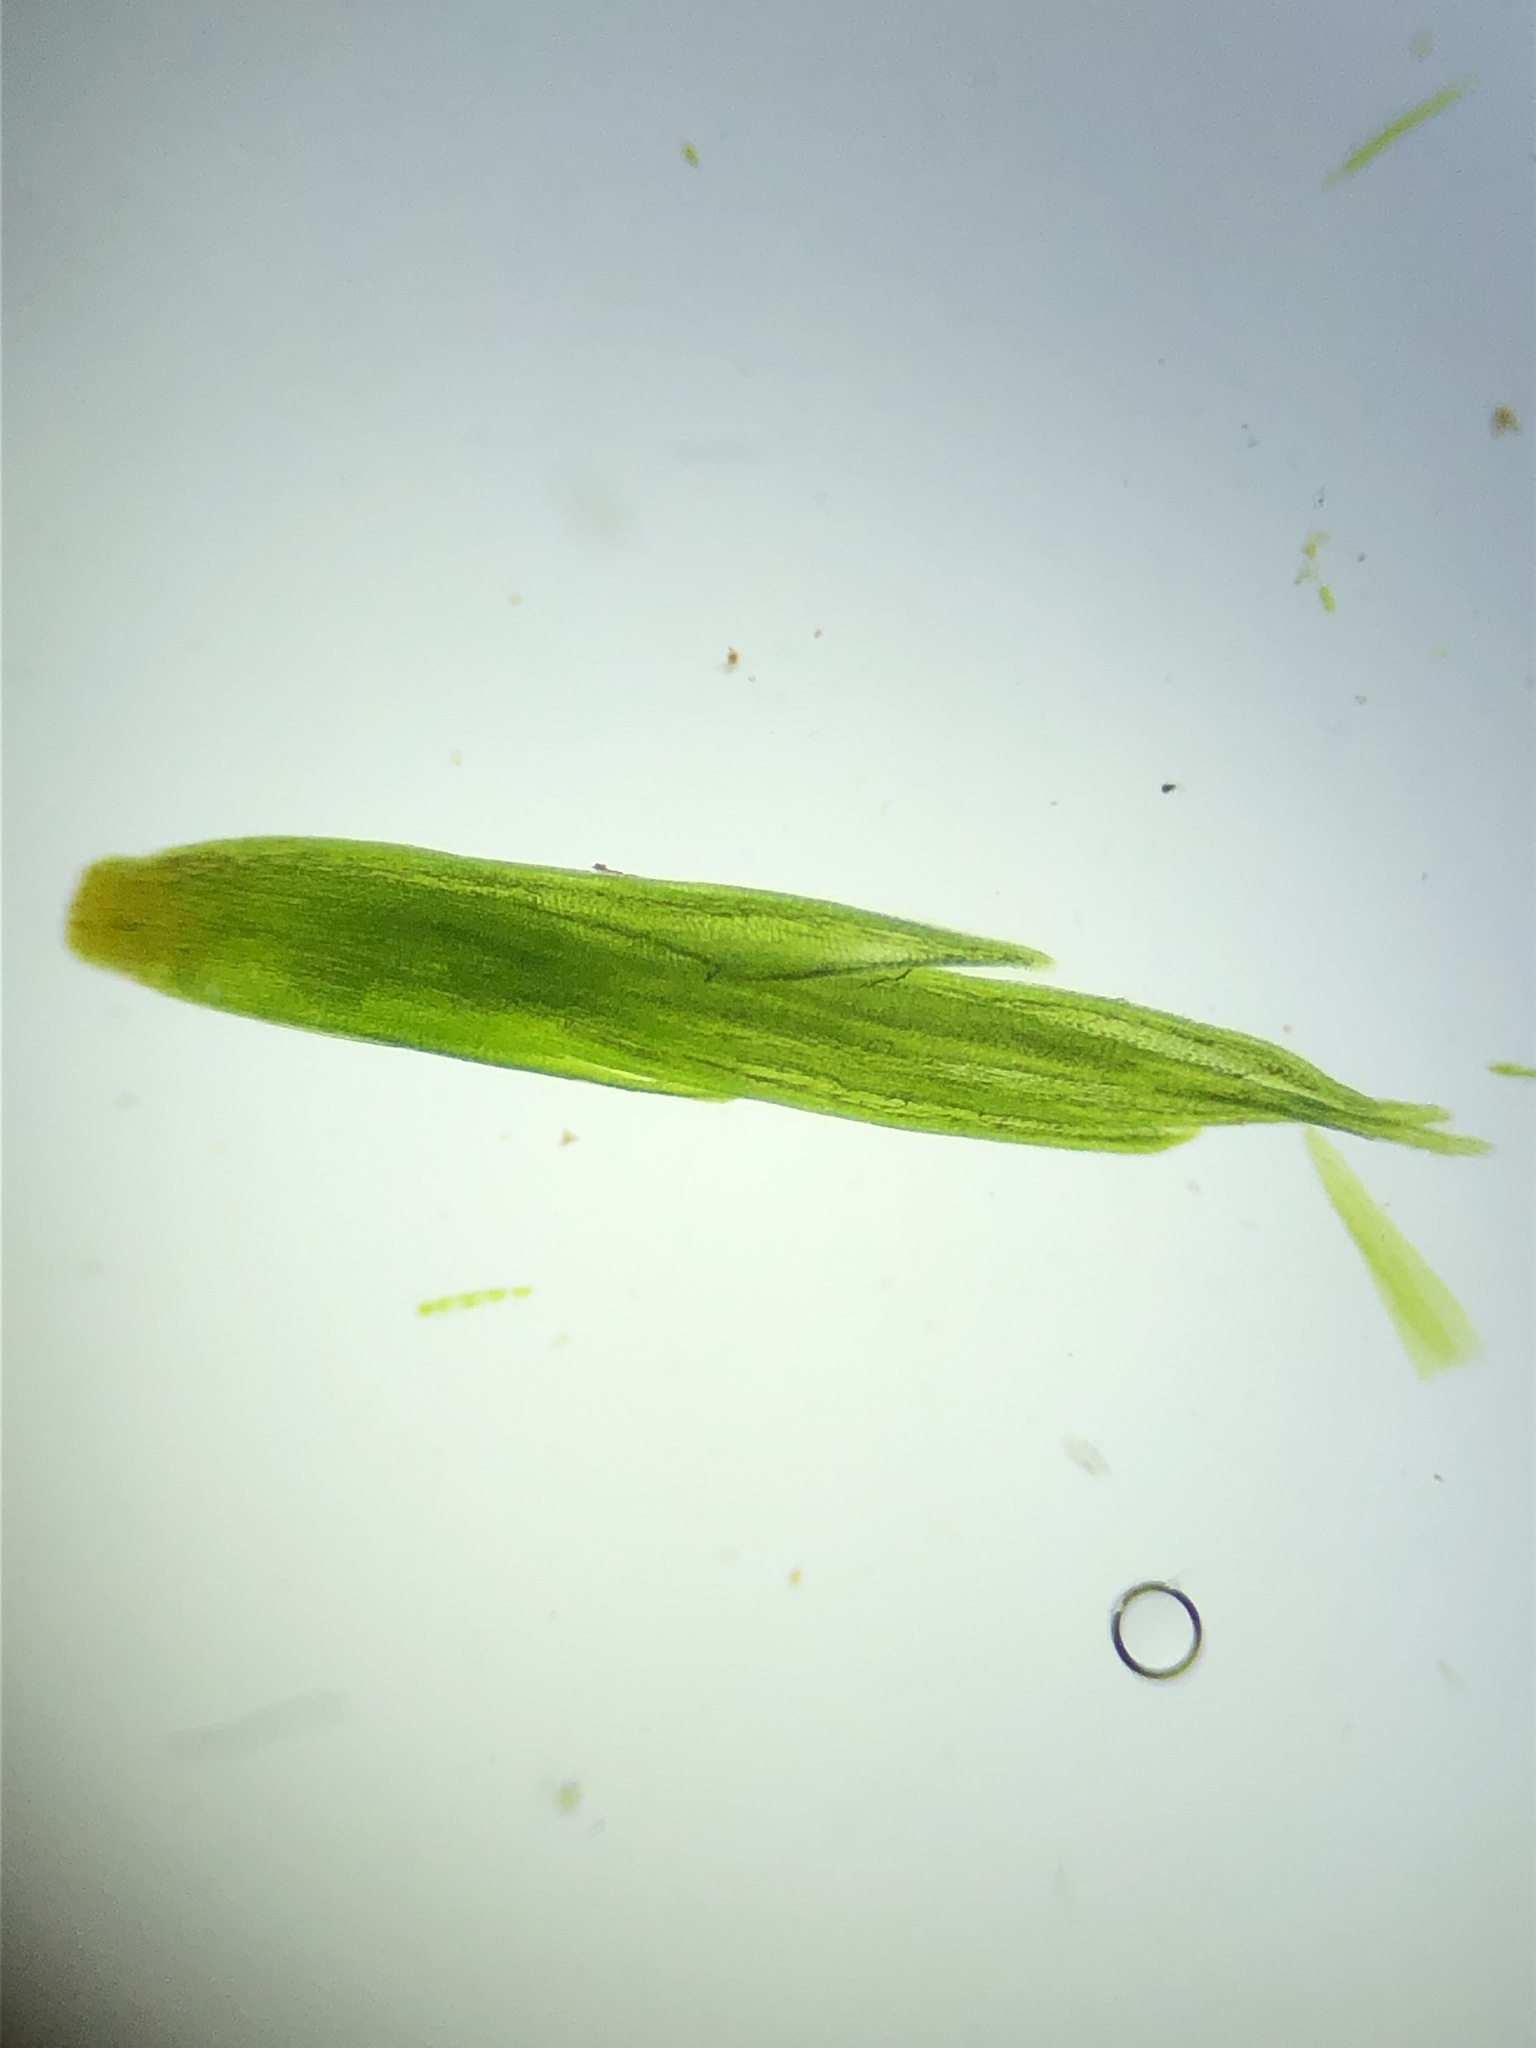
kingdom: Plantae
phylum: Bryophyta
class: Bryopsida
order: Dicranales
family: Leucobryaceae
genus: Campylopus
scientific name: Campylopus pyriformis
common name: Dwarf swan-neck moss
